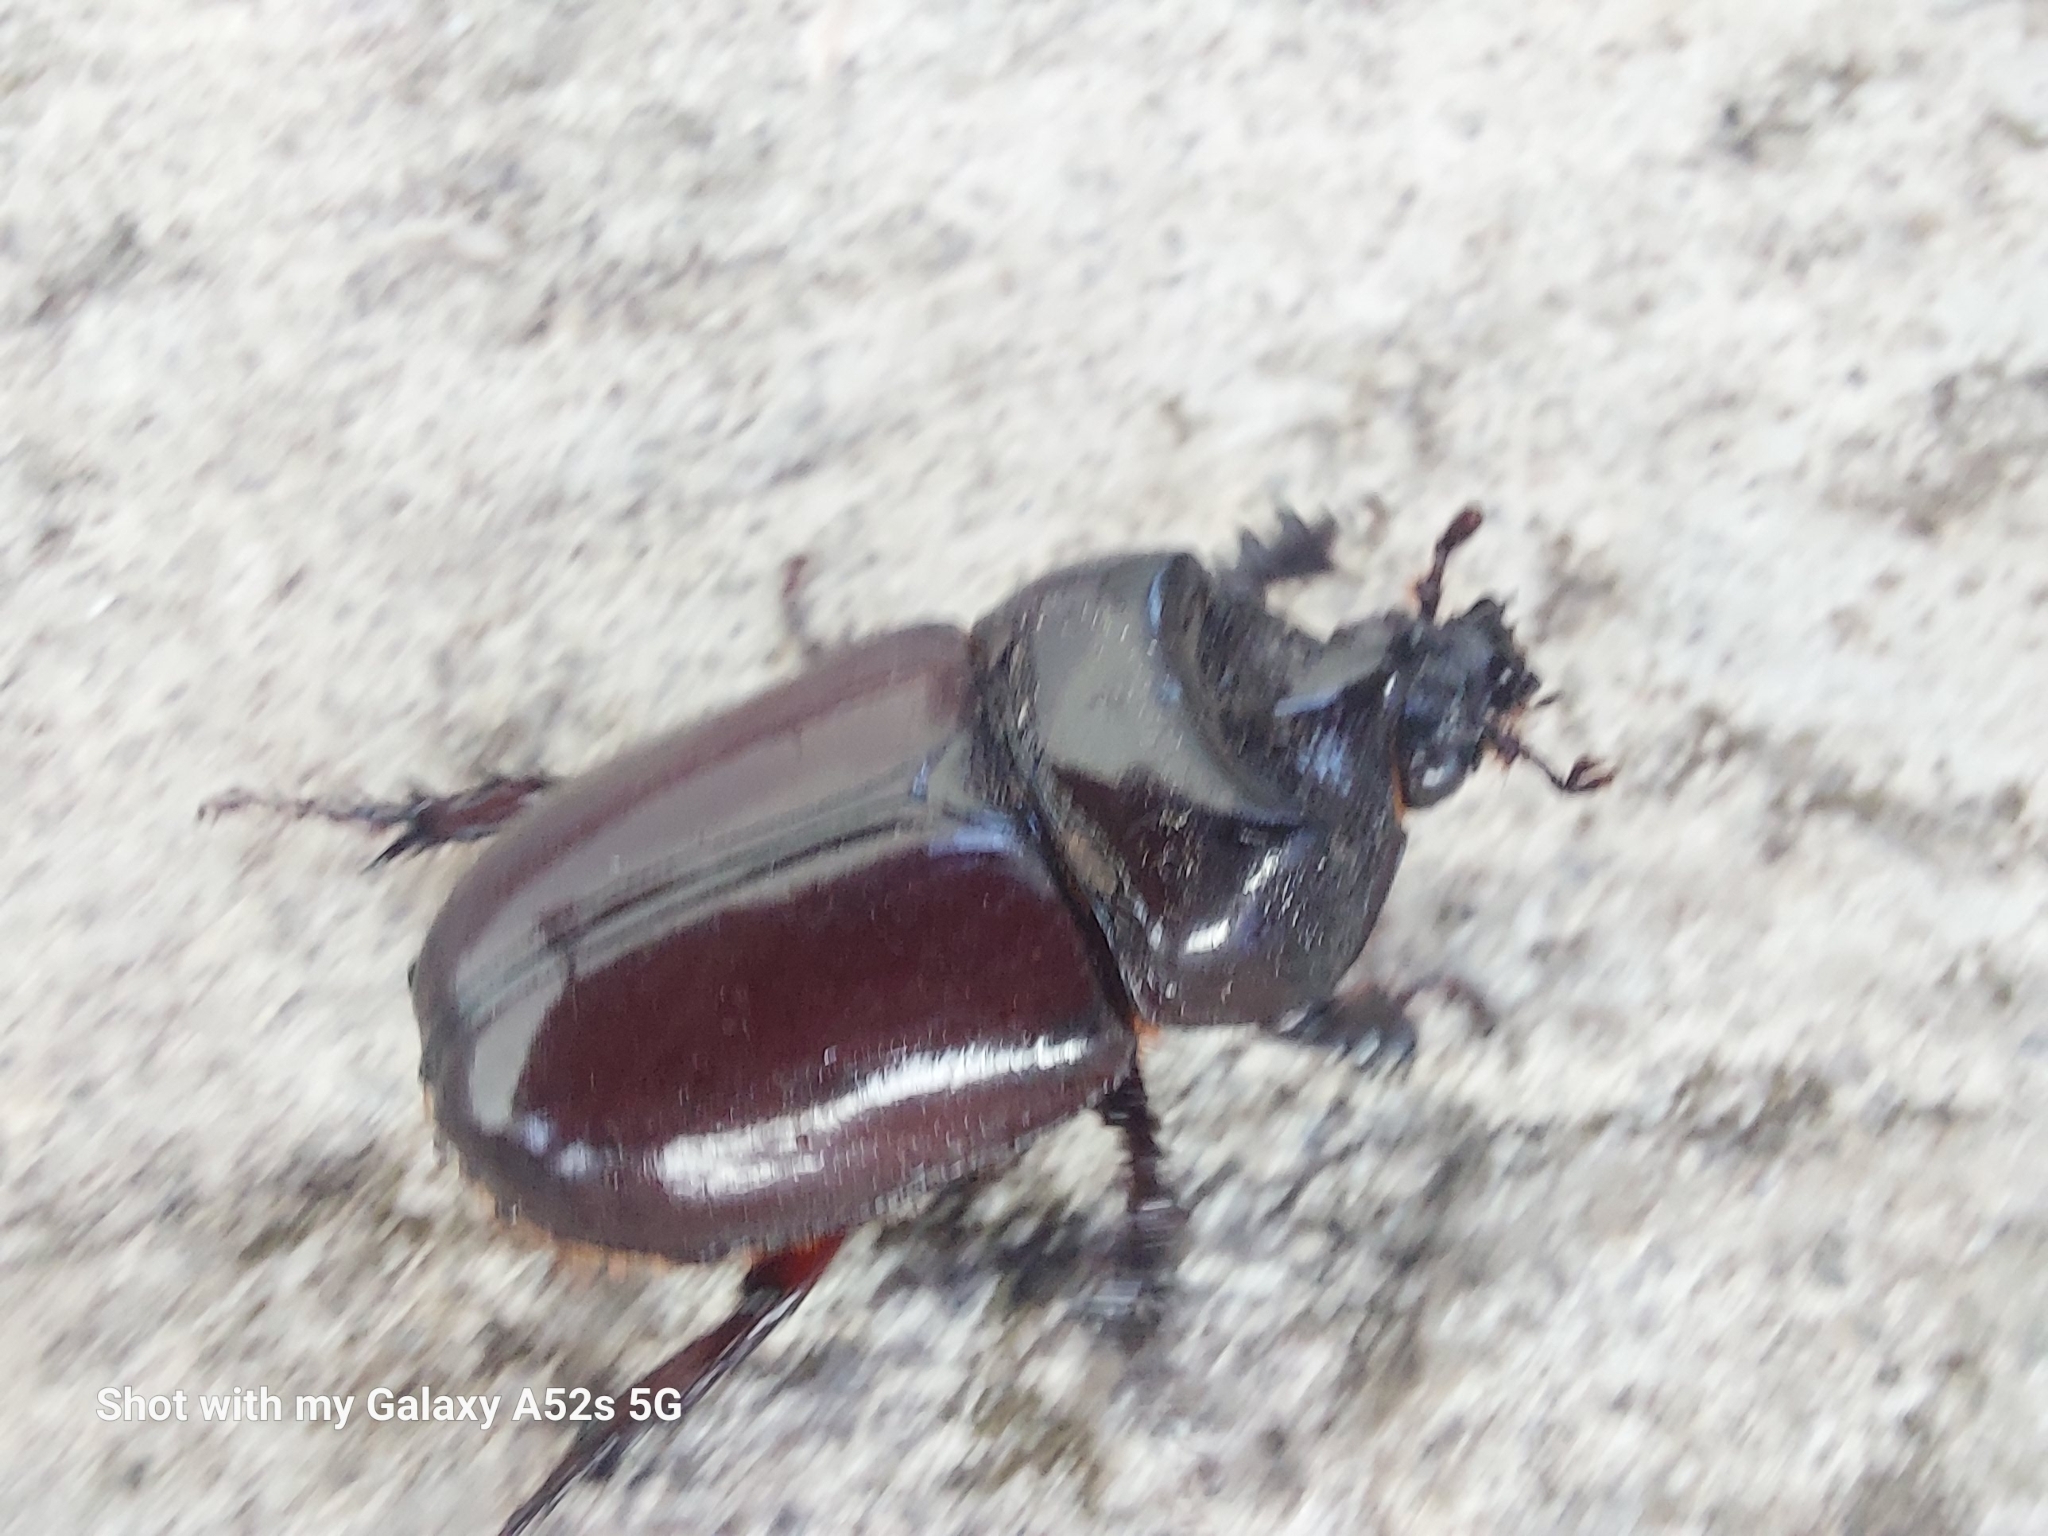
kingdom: Animalia
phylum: Arthropoda
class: Insecta
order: Coleoptera
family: Scarabaeidae
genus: Strategus
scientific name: Strategus aloeus
